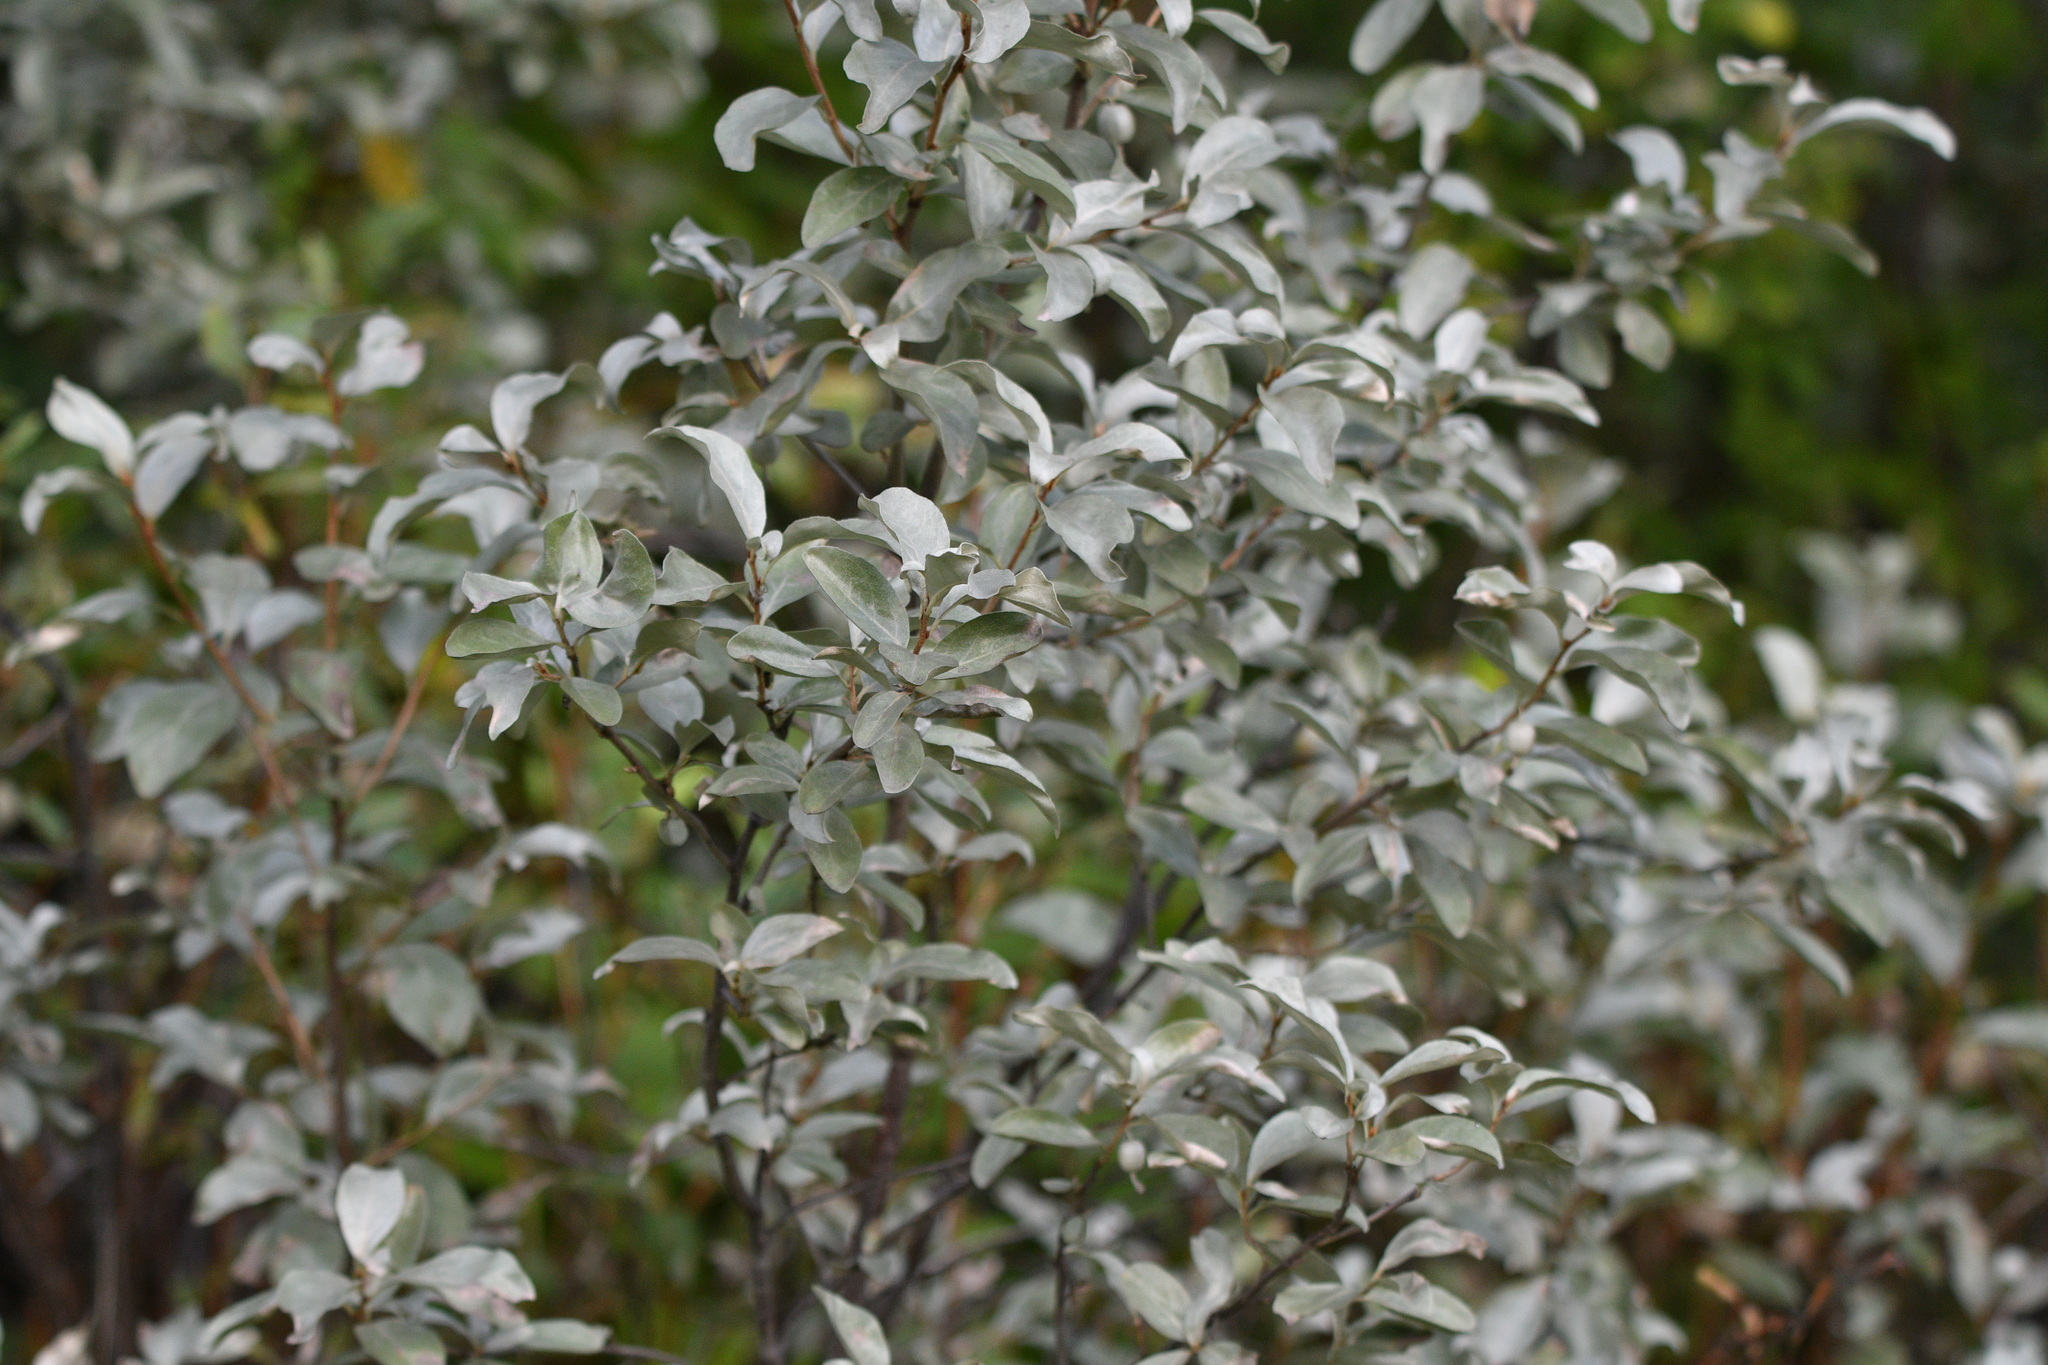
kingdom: Plantae
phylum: Tracheophyta
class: Magnoliopsida
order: Rosales
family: Elaeagnaceae
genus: Elaeagnus
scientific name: Elaeagnus commutata
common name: Silverberry
